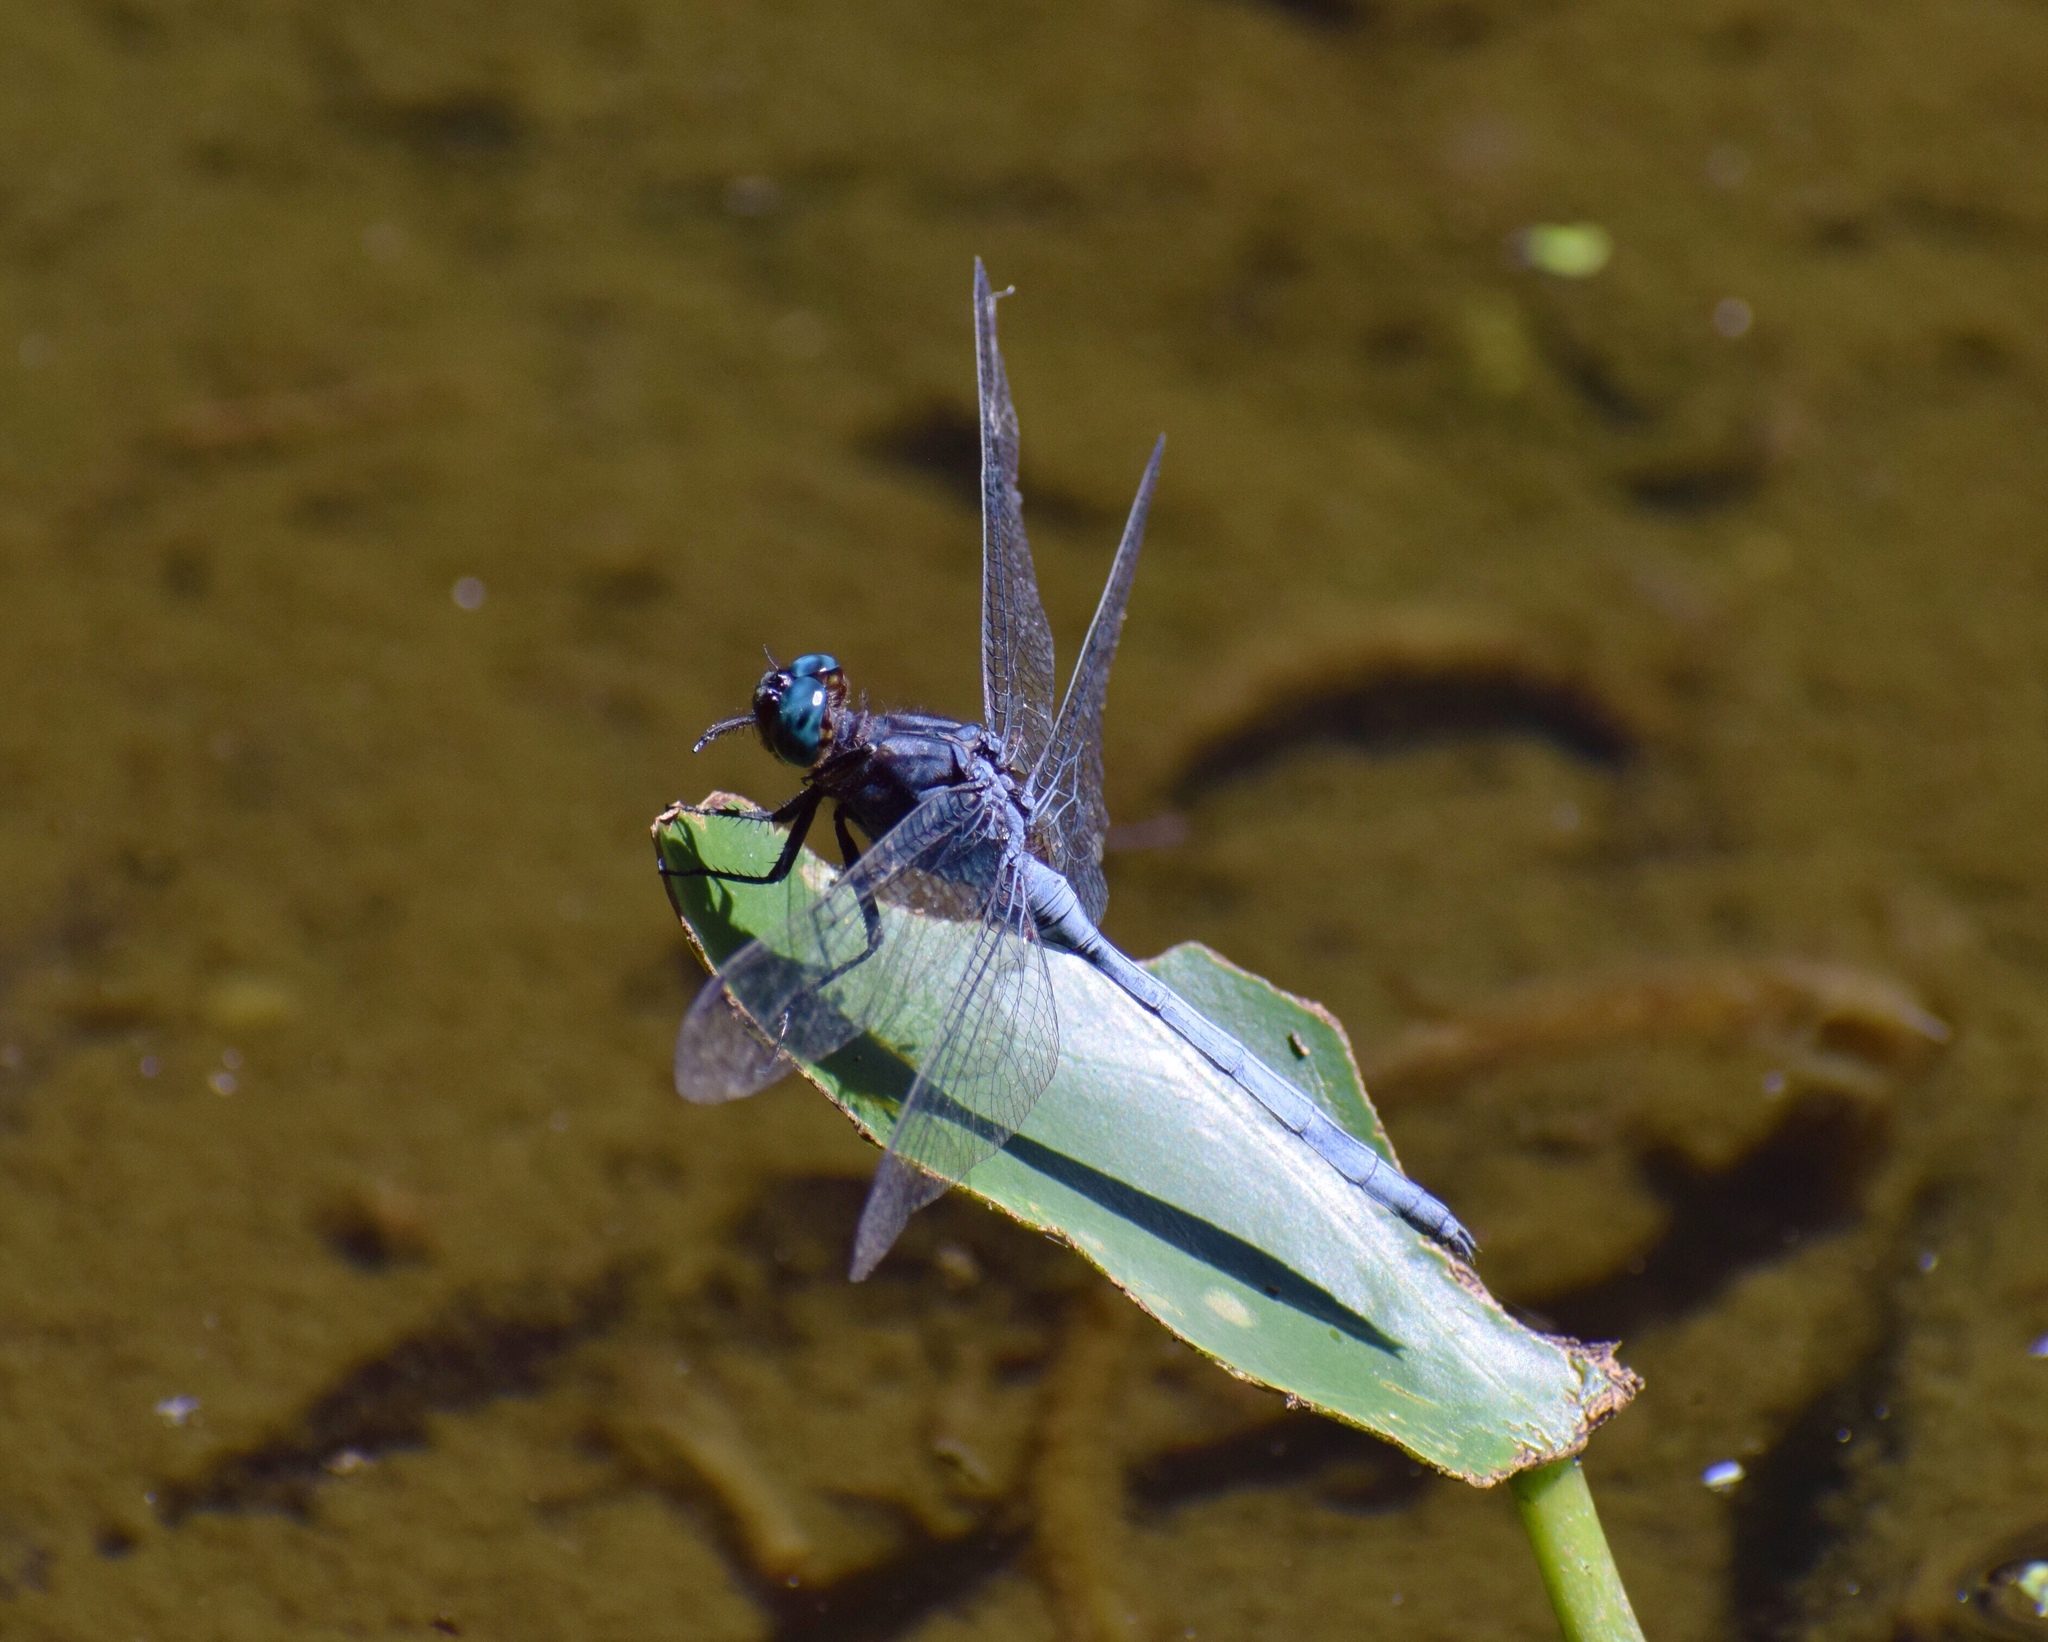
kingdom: Animalia
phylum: Arthropoda
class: Insecta
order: Odonata
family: Libellulidae
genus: Orthetrum
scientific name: Orthetrum julia
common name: Julia skimmer
